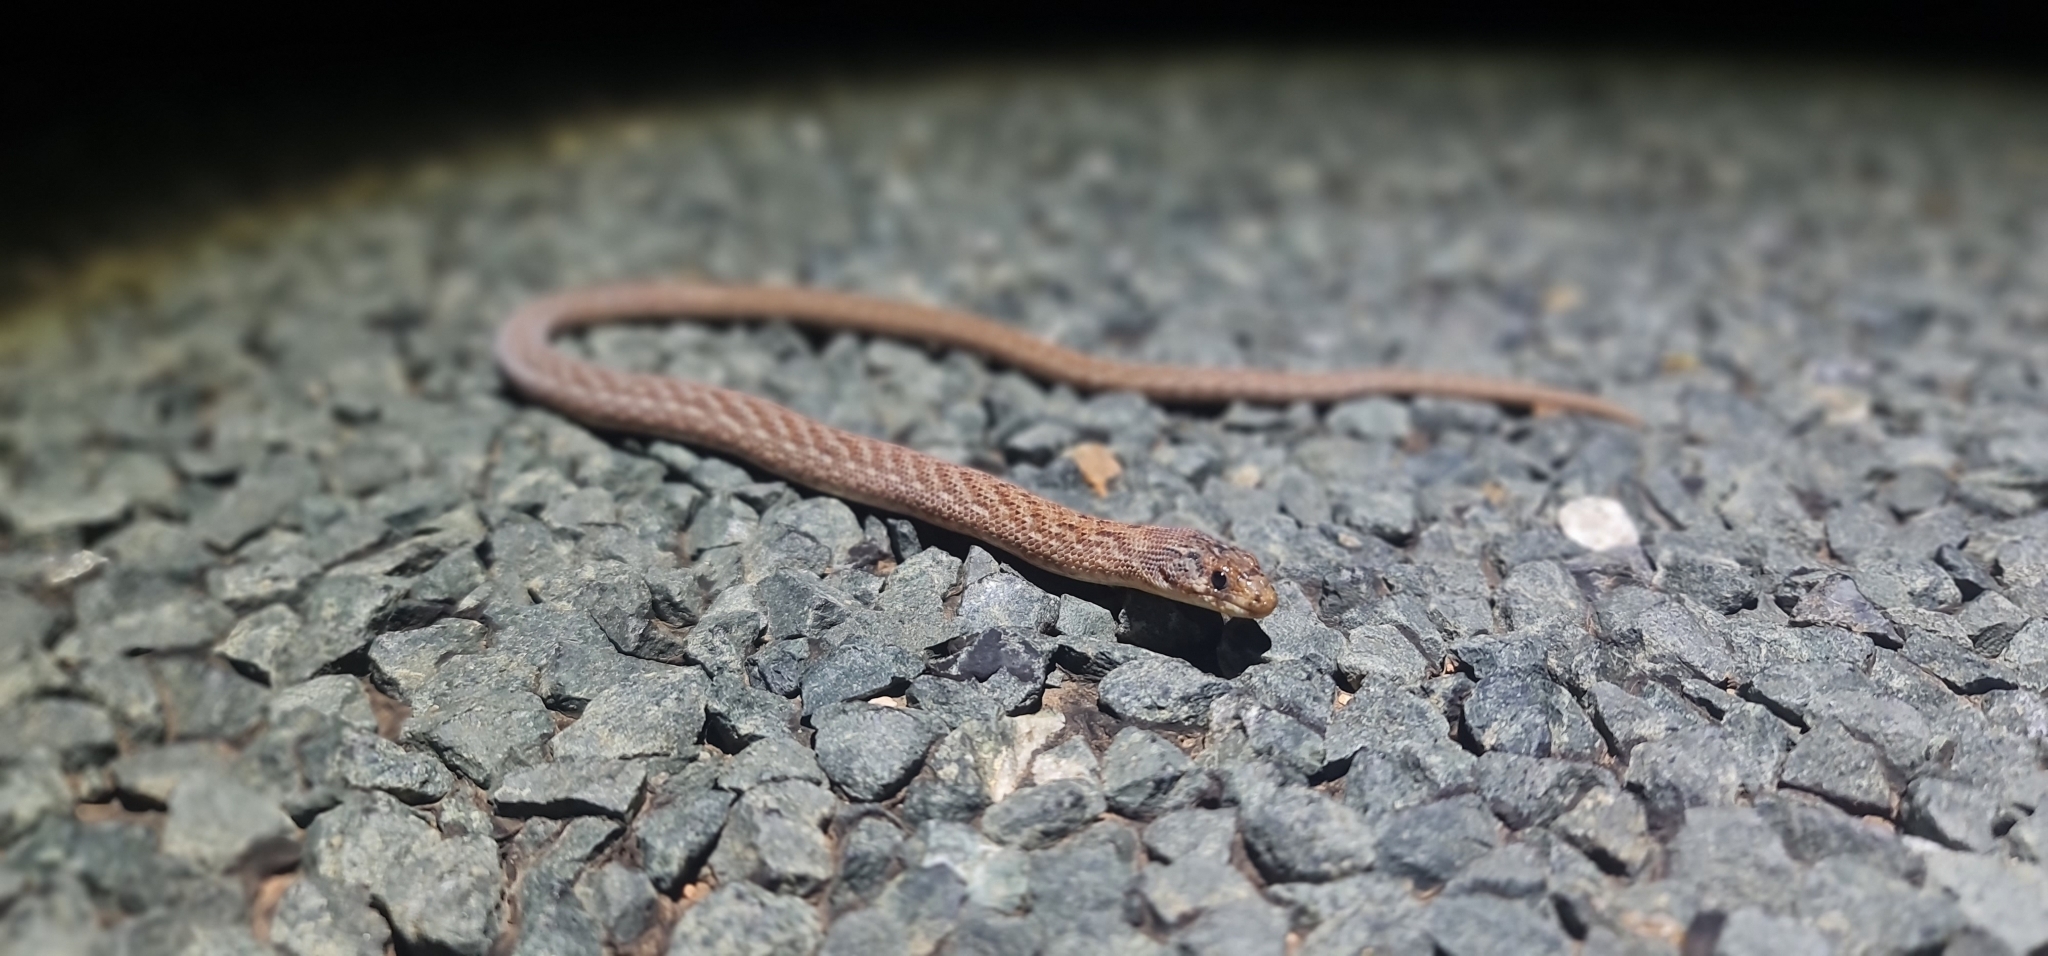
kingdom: Animalia
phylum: Chordata
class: Squamata
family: Pygopodidae
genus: Pygopus
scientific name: Pygopus schraderi
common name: Eastern scaly-foot
